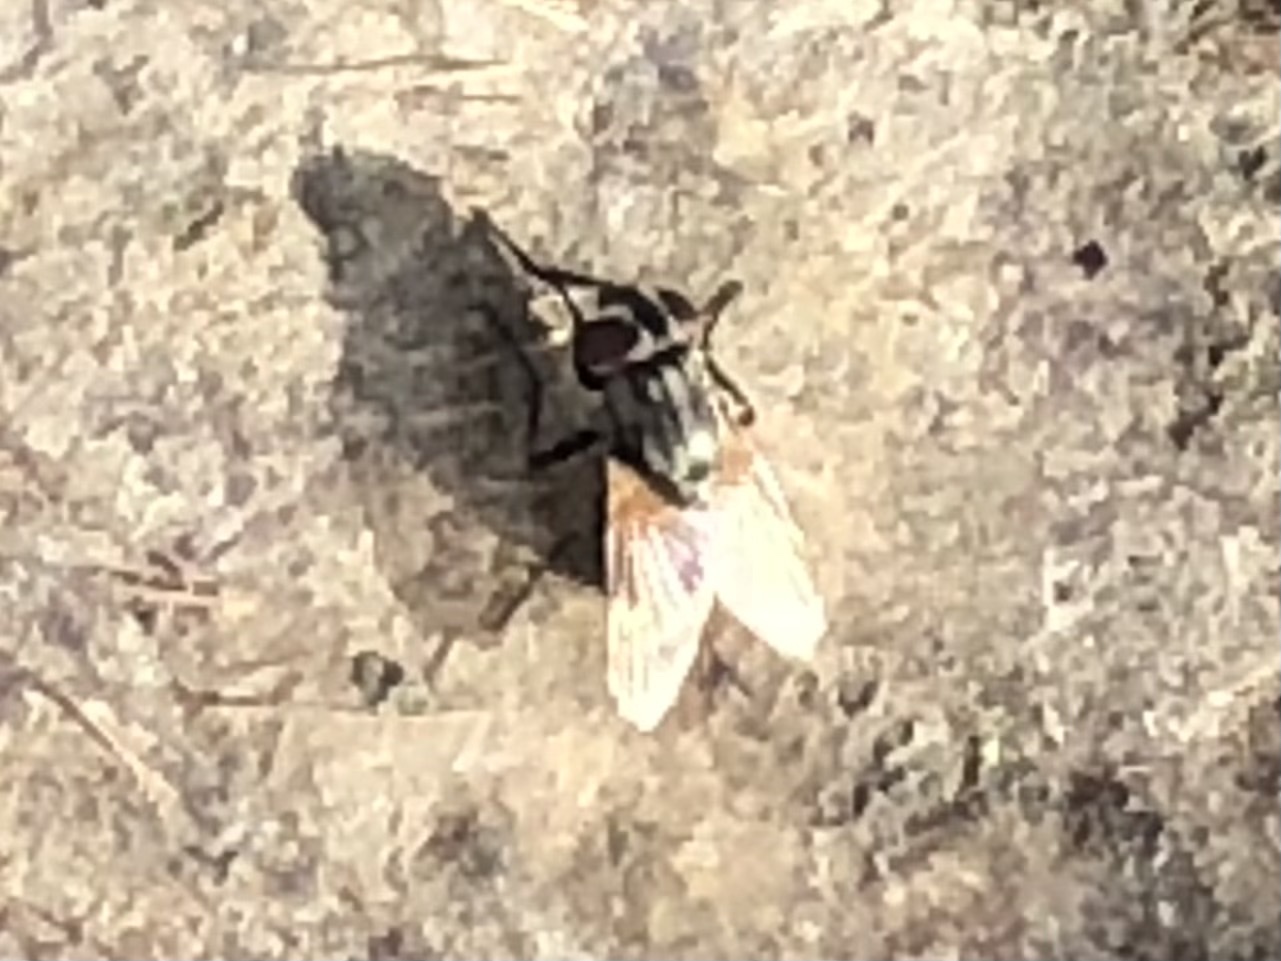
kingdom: Animalia
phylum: Arthropoda
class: Insecta
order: Diptera
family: Muscidae
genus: Musca
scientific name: Musca domestica
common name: House fly
